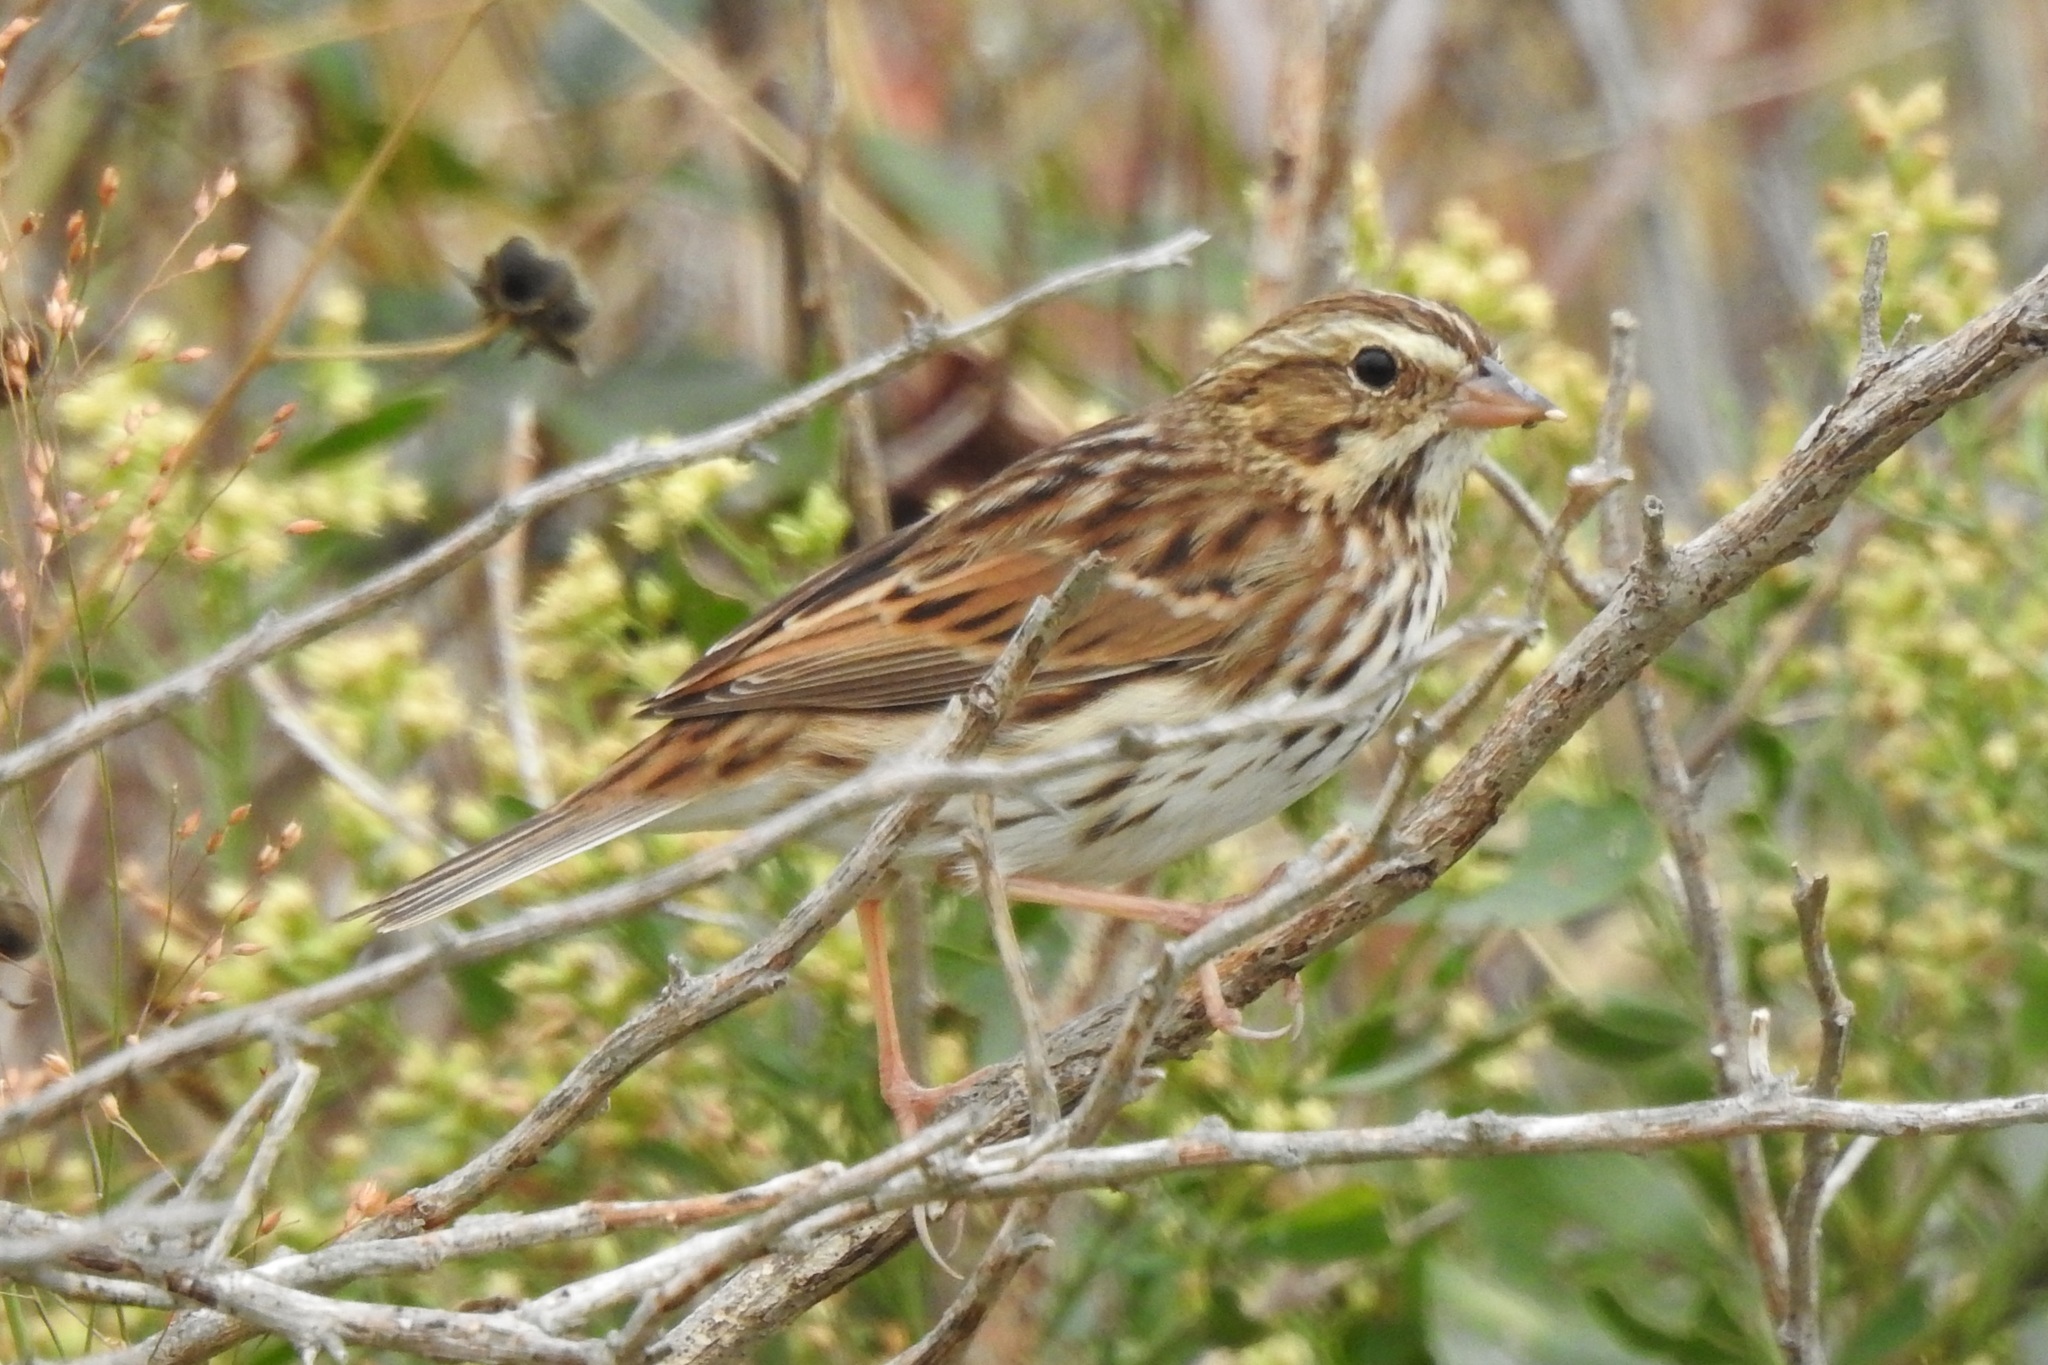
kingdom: Animalia
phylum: Chordata
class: Aves
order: Passeriformes
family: Passerellidae
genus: Passerculus
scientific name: Passerculus sandwichensis
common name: Savannah sparrow
